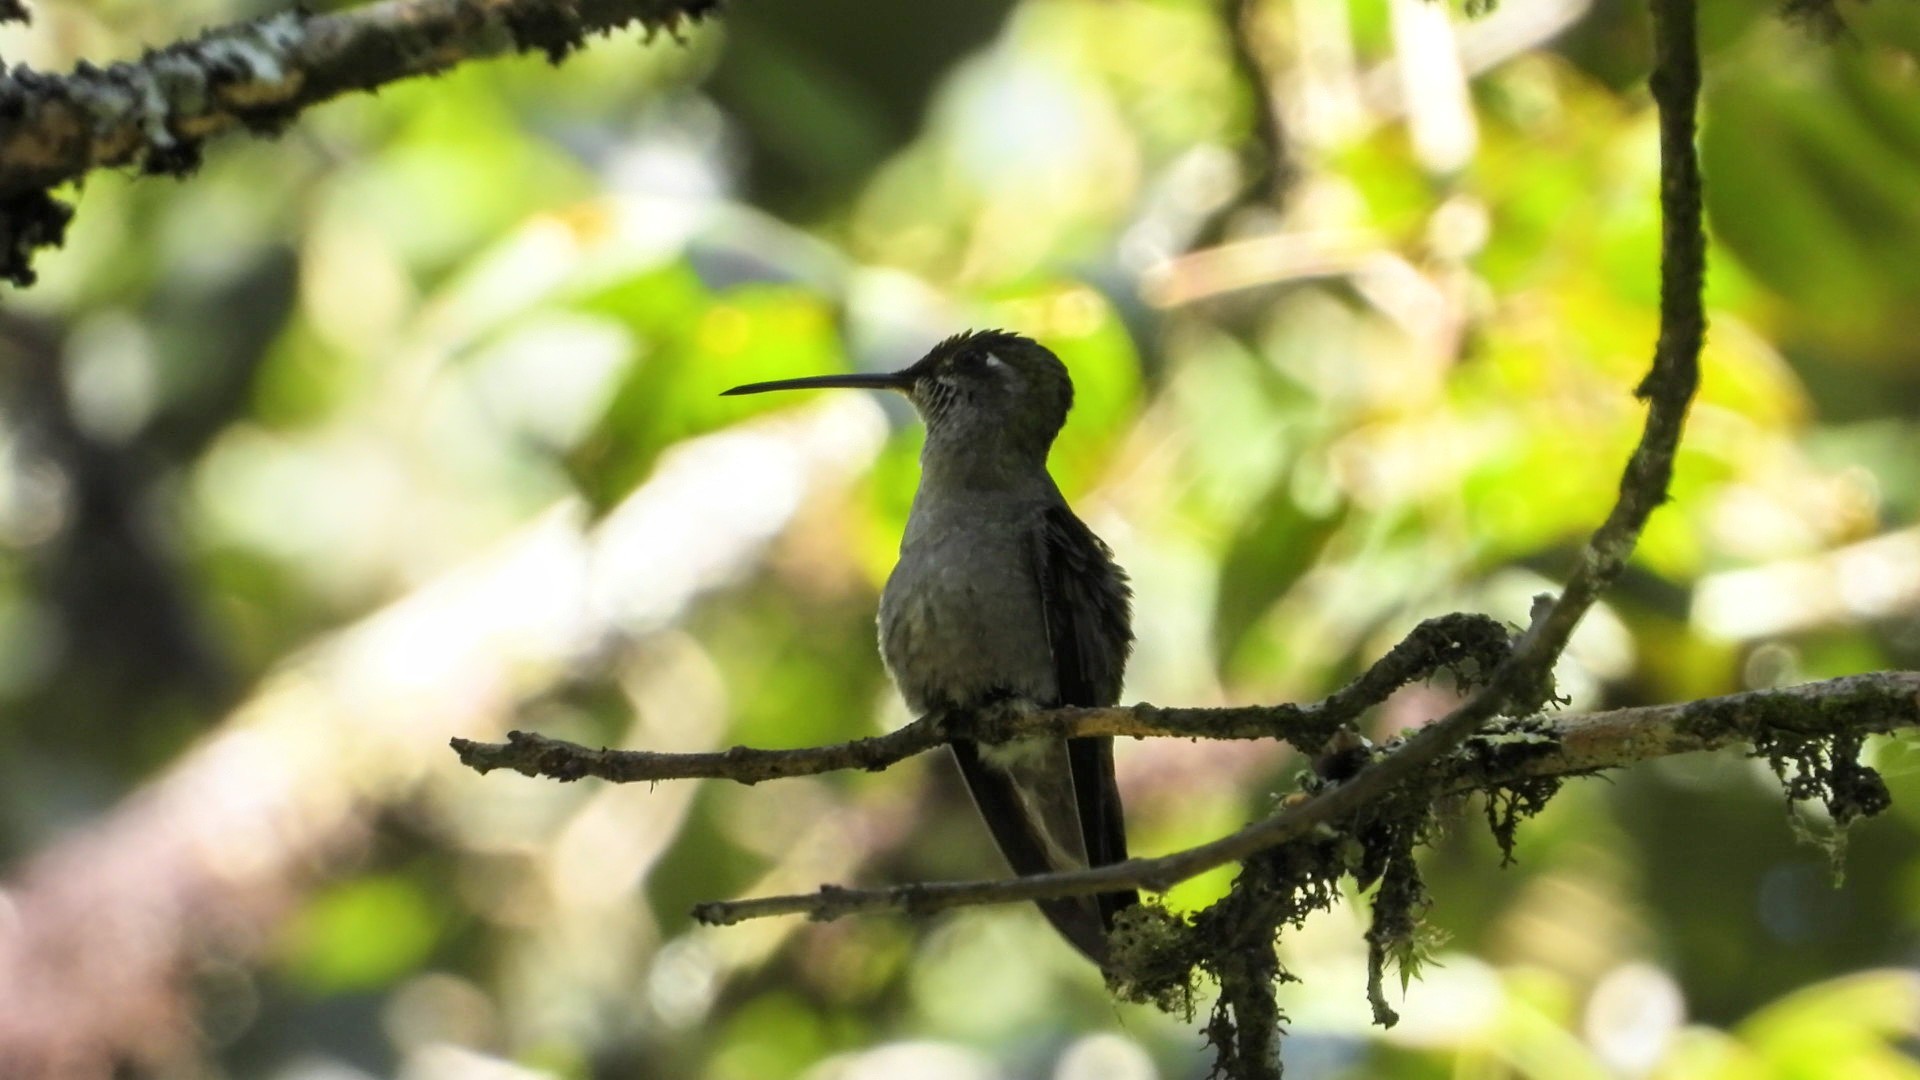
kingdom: Animalia
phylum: Chordata
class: Aves
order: Apodiformes
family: Trochilidae
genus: Eugenes
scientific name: Eugenes fulgens
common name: Magnificent hummingbird
